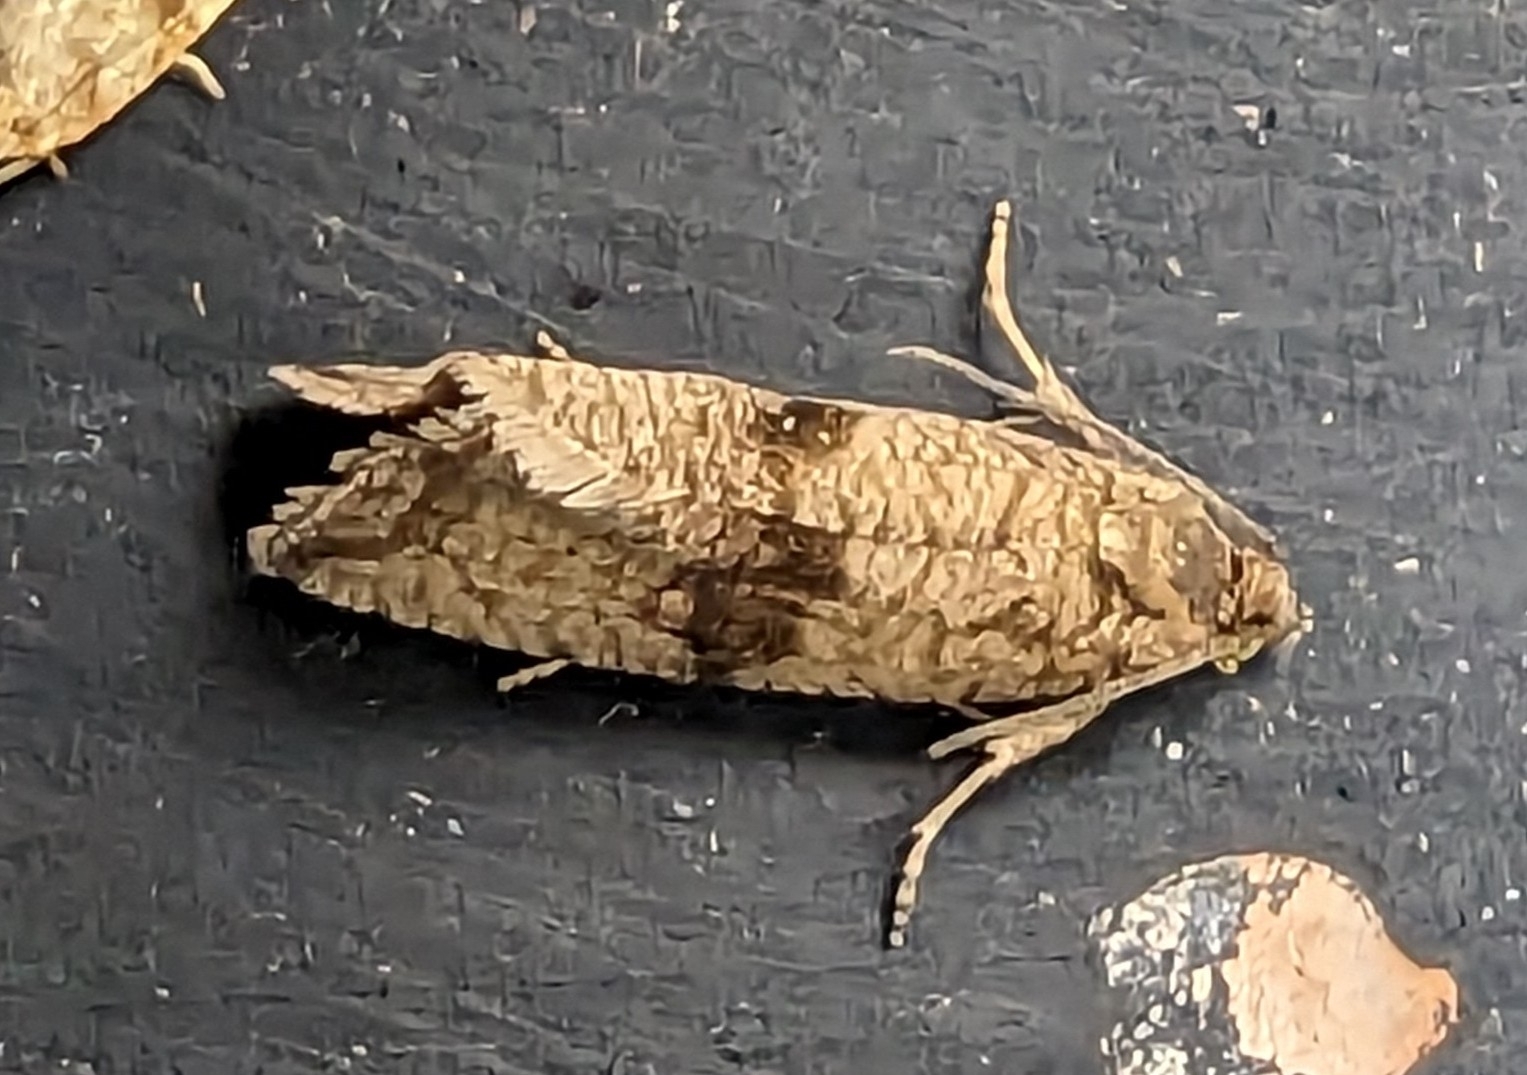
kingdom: Animalia
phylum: Arthropoda
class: Insecta
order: Lepidoptera
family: Tortricidae
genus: Celypha
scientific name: Celypha striana
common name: Barred marble
